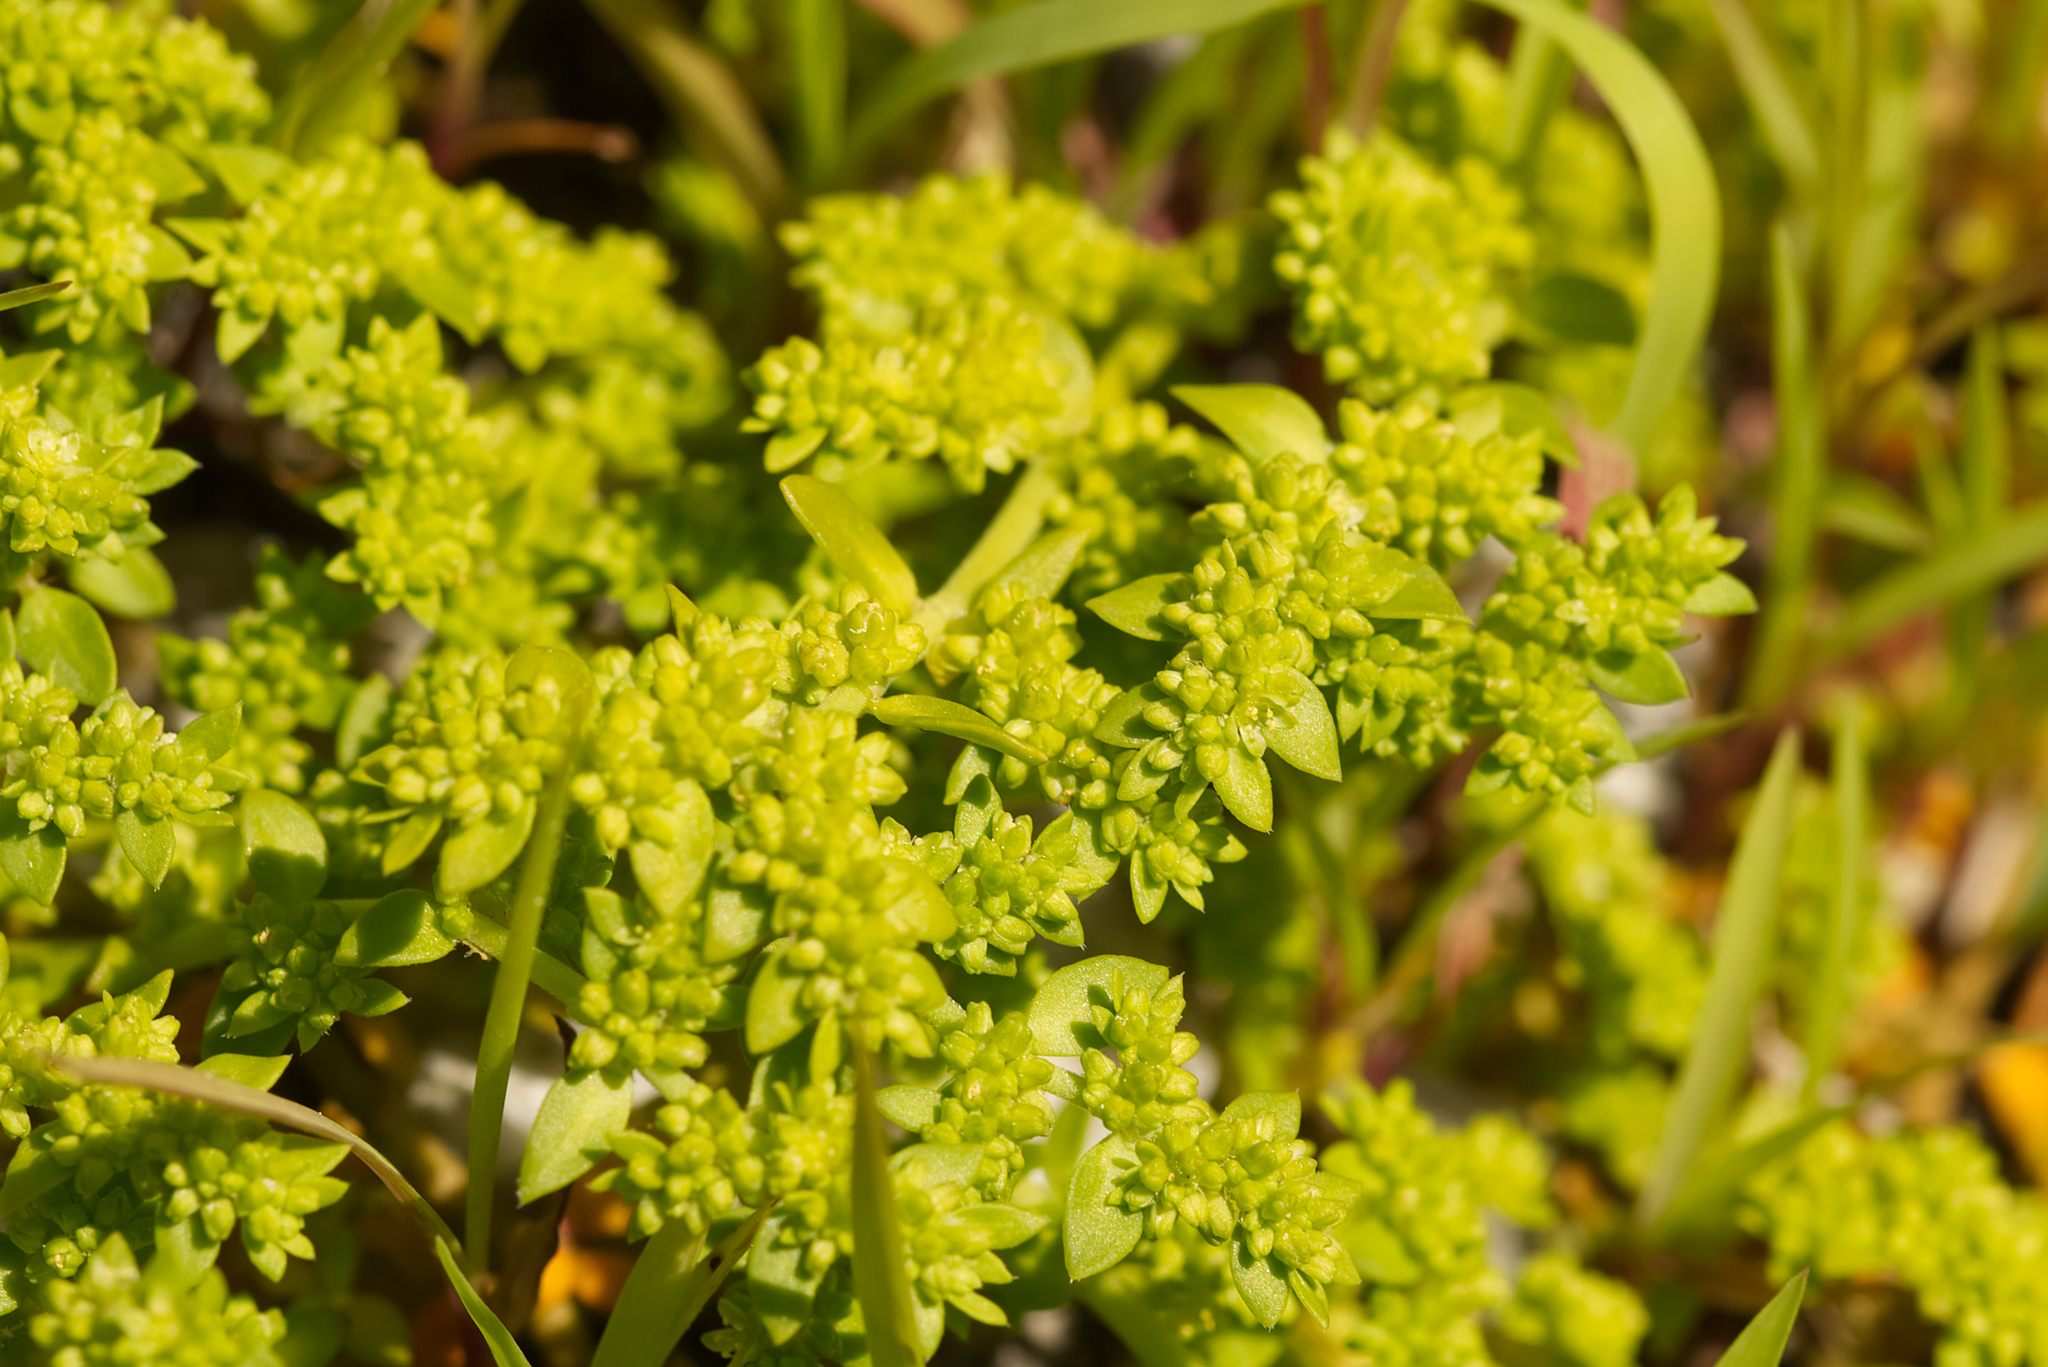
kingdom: Plantae
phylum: Tracheophyta
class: Magnoliopsida
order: Caryophyllales
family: Caryophyllaceae
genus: Herniaria
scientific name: Herniaria glabra
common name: Smooth rupturewort
